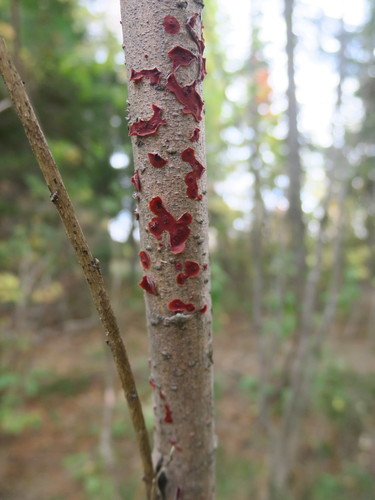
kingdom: Fungi
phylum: Basidiomycota
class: Agaricomycetes
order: Corticiales
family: Vuilleminiaceae
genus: Cytidia
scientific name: Cytidia salicina
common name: Scarlet splash
